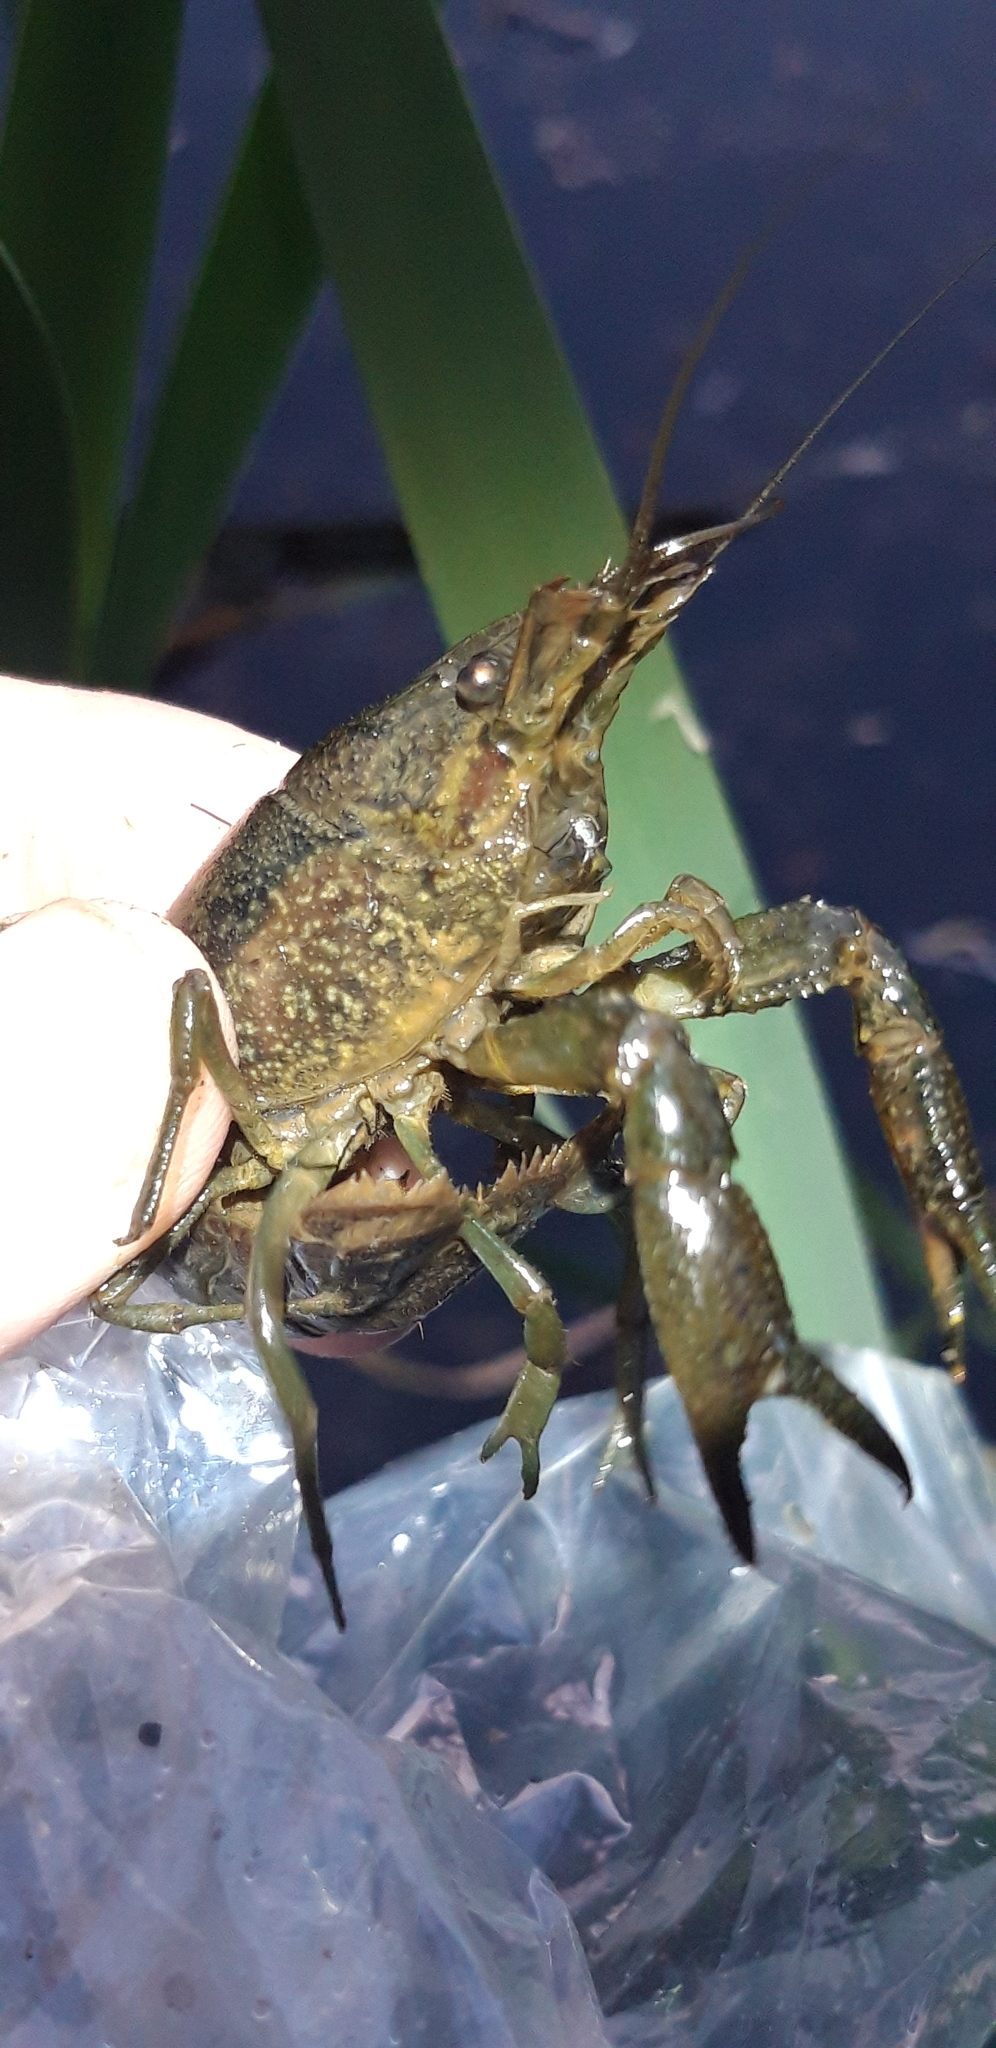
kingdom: Animalia
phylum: Arthropoda
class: Malacostraca
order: Decapoda
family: Cambaridae
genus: Procambarus
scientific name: Procambarus virginalis
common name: Marbled crayfish
